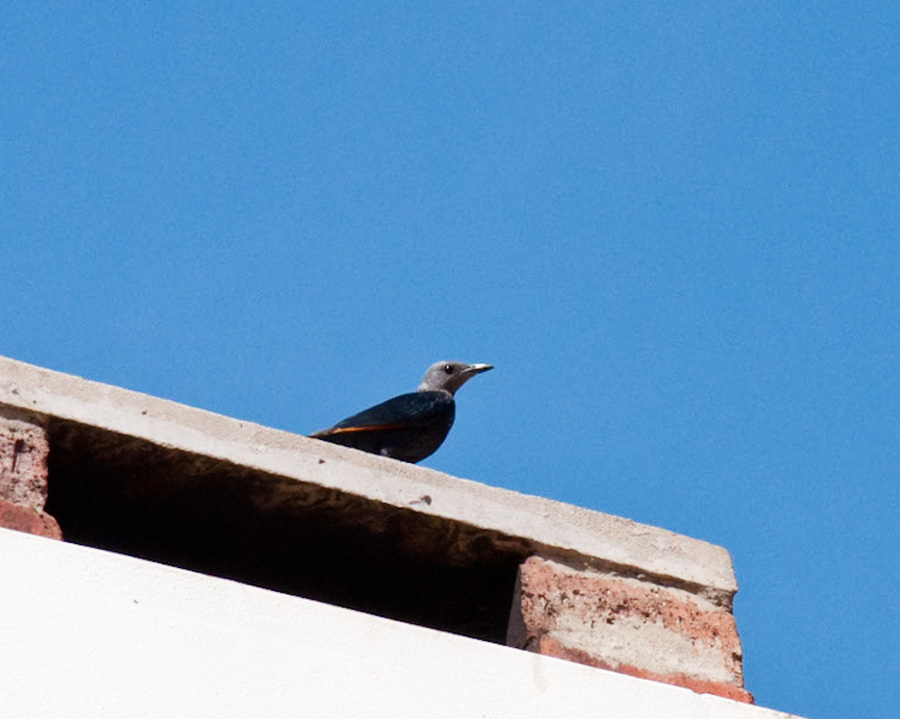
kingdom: Animalia
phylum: Chordata
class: Aves
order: Passeriformes
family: Sturnidae
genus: Onychognathus
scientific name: Onychognathus morio
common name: Red-winged starling
